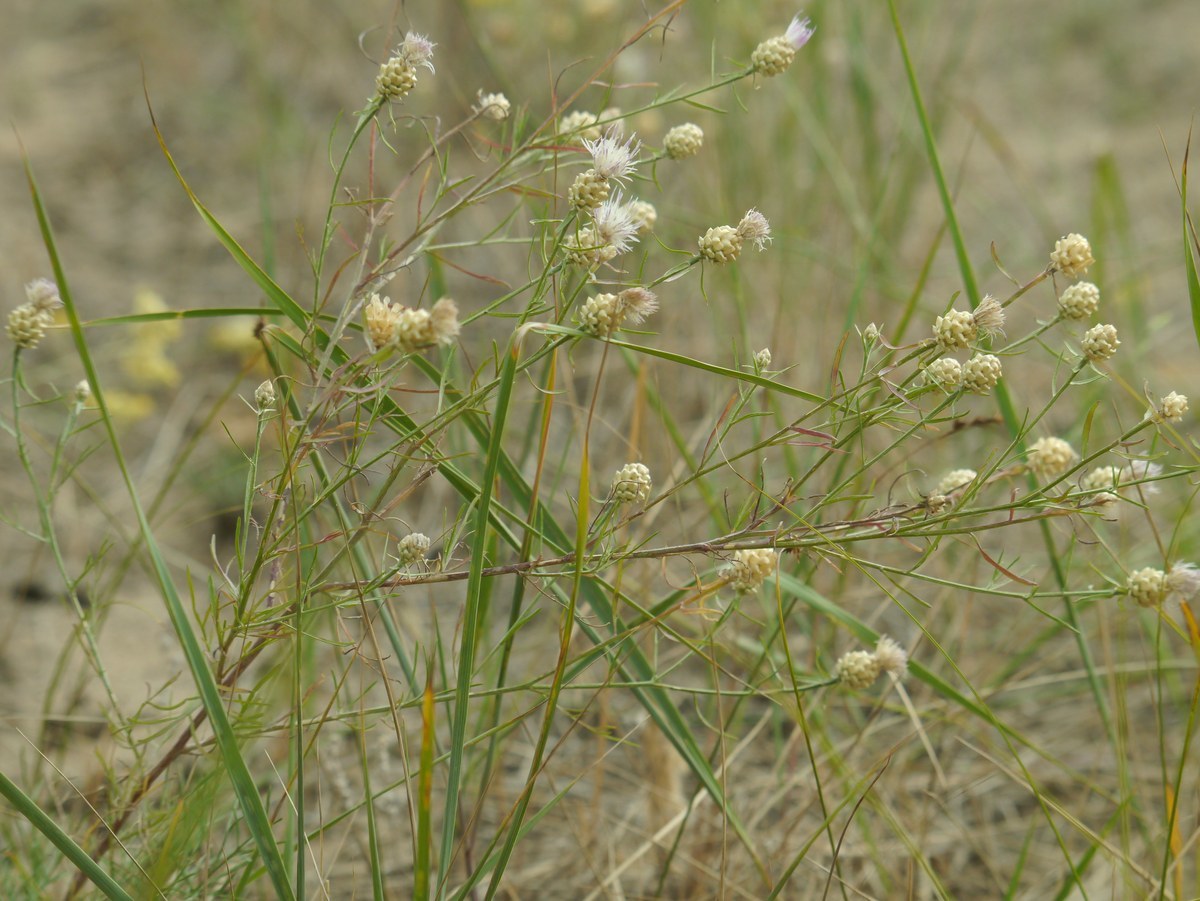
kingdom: Plantae
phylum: Tracheophyta
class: Magnoliopsida
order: Asterales
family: Asteraceae
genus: Centaurea
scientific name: Centaurea protomargaritacea
